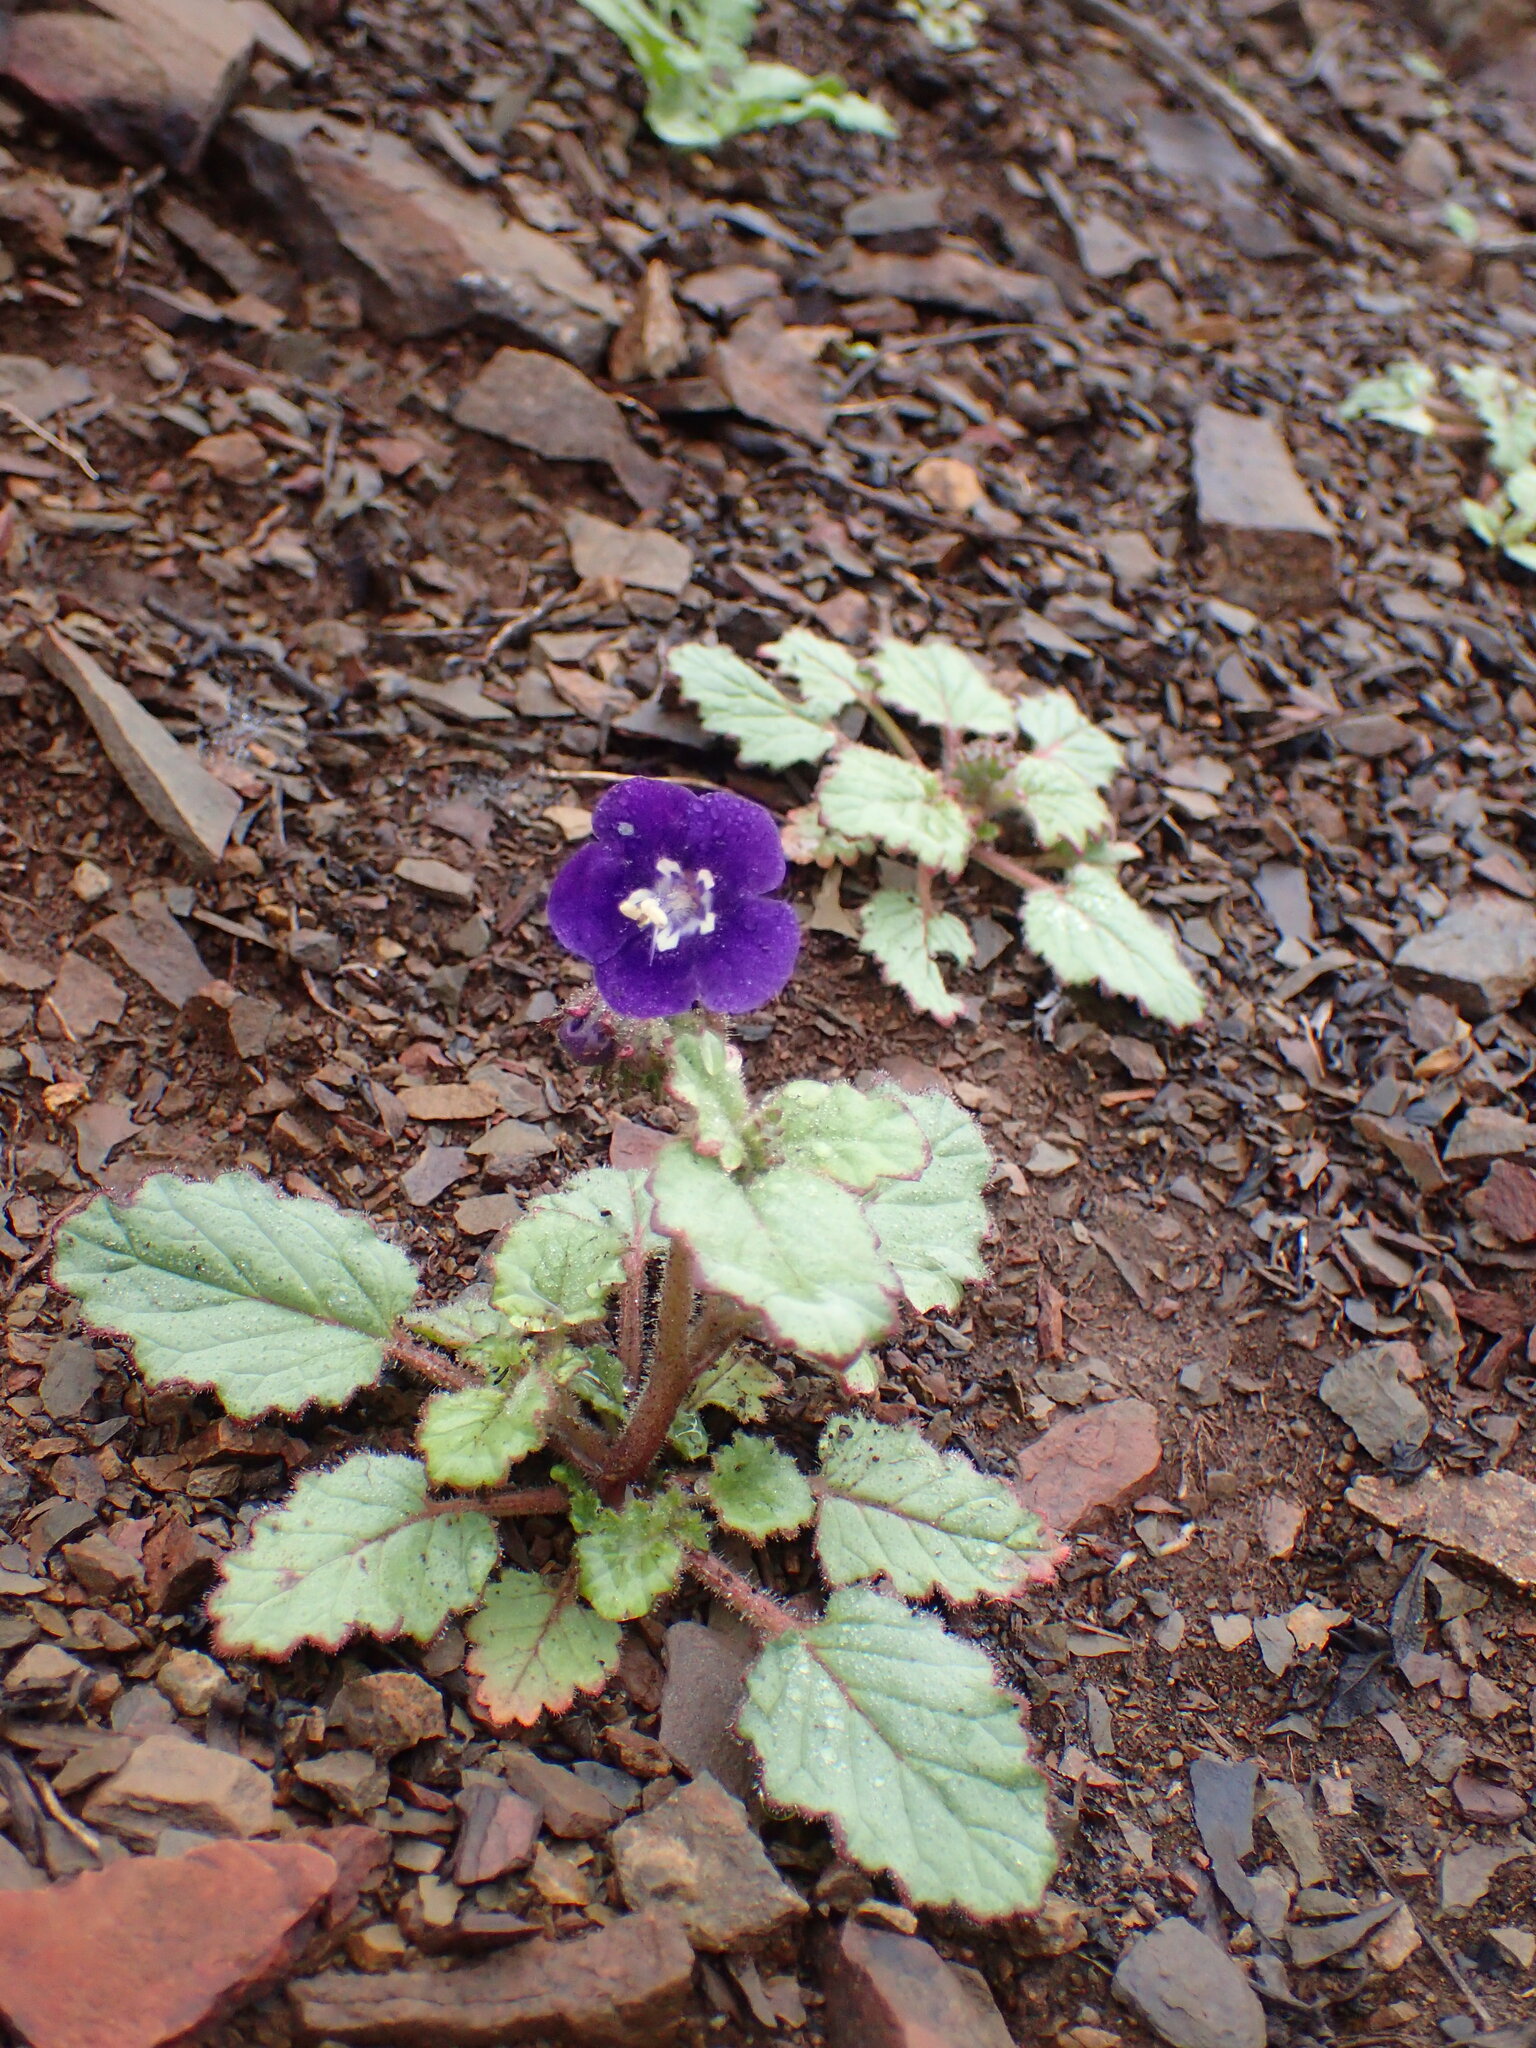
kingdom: Plantae
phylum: Tracheophyta
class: Magnoliopsida
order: Boraginales
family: Hydrophyllaceae
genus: Phacelia
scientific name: Phacelia parryi
